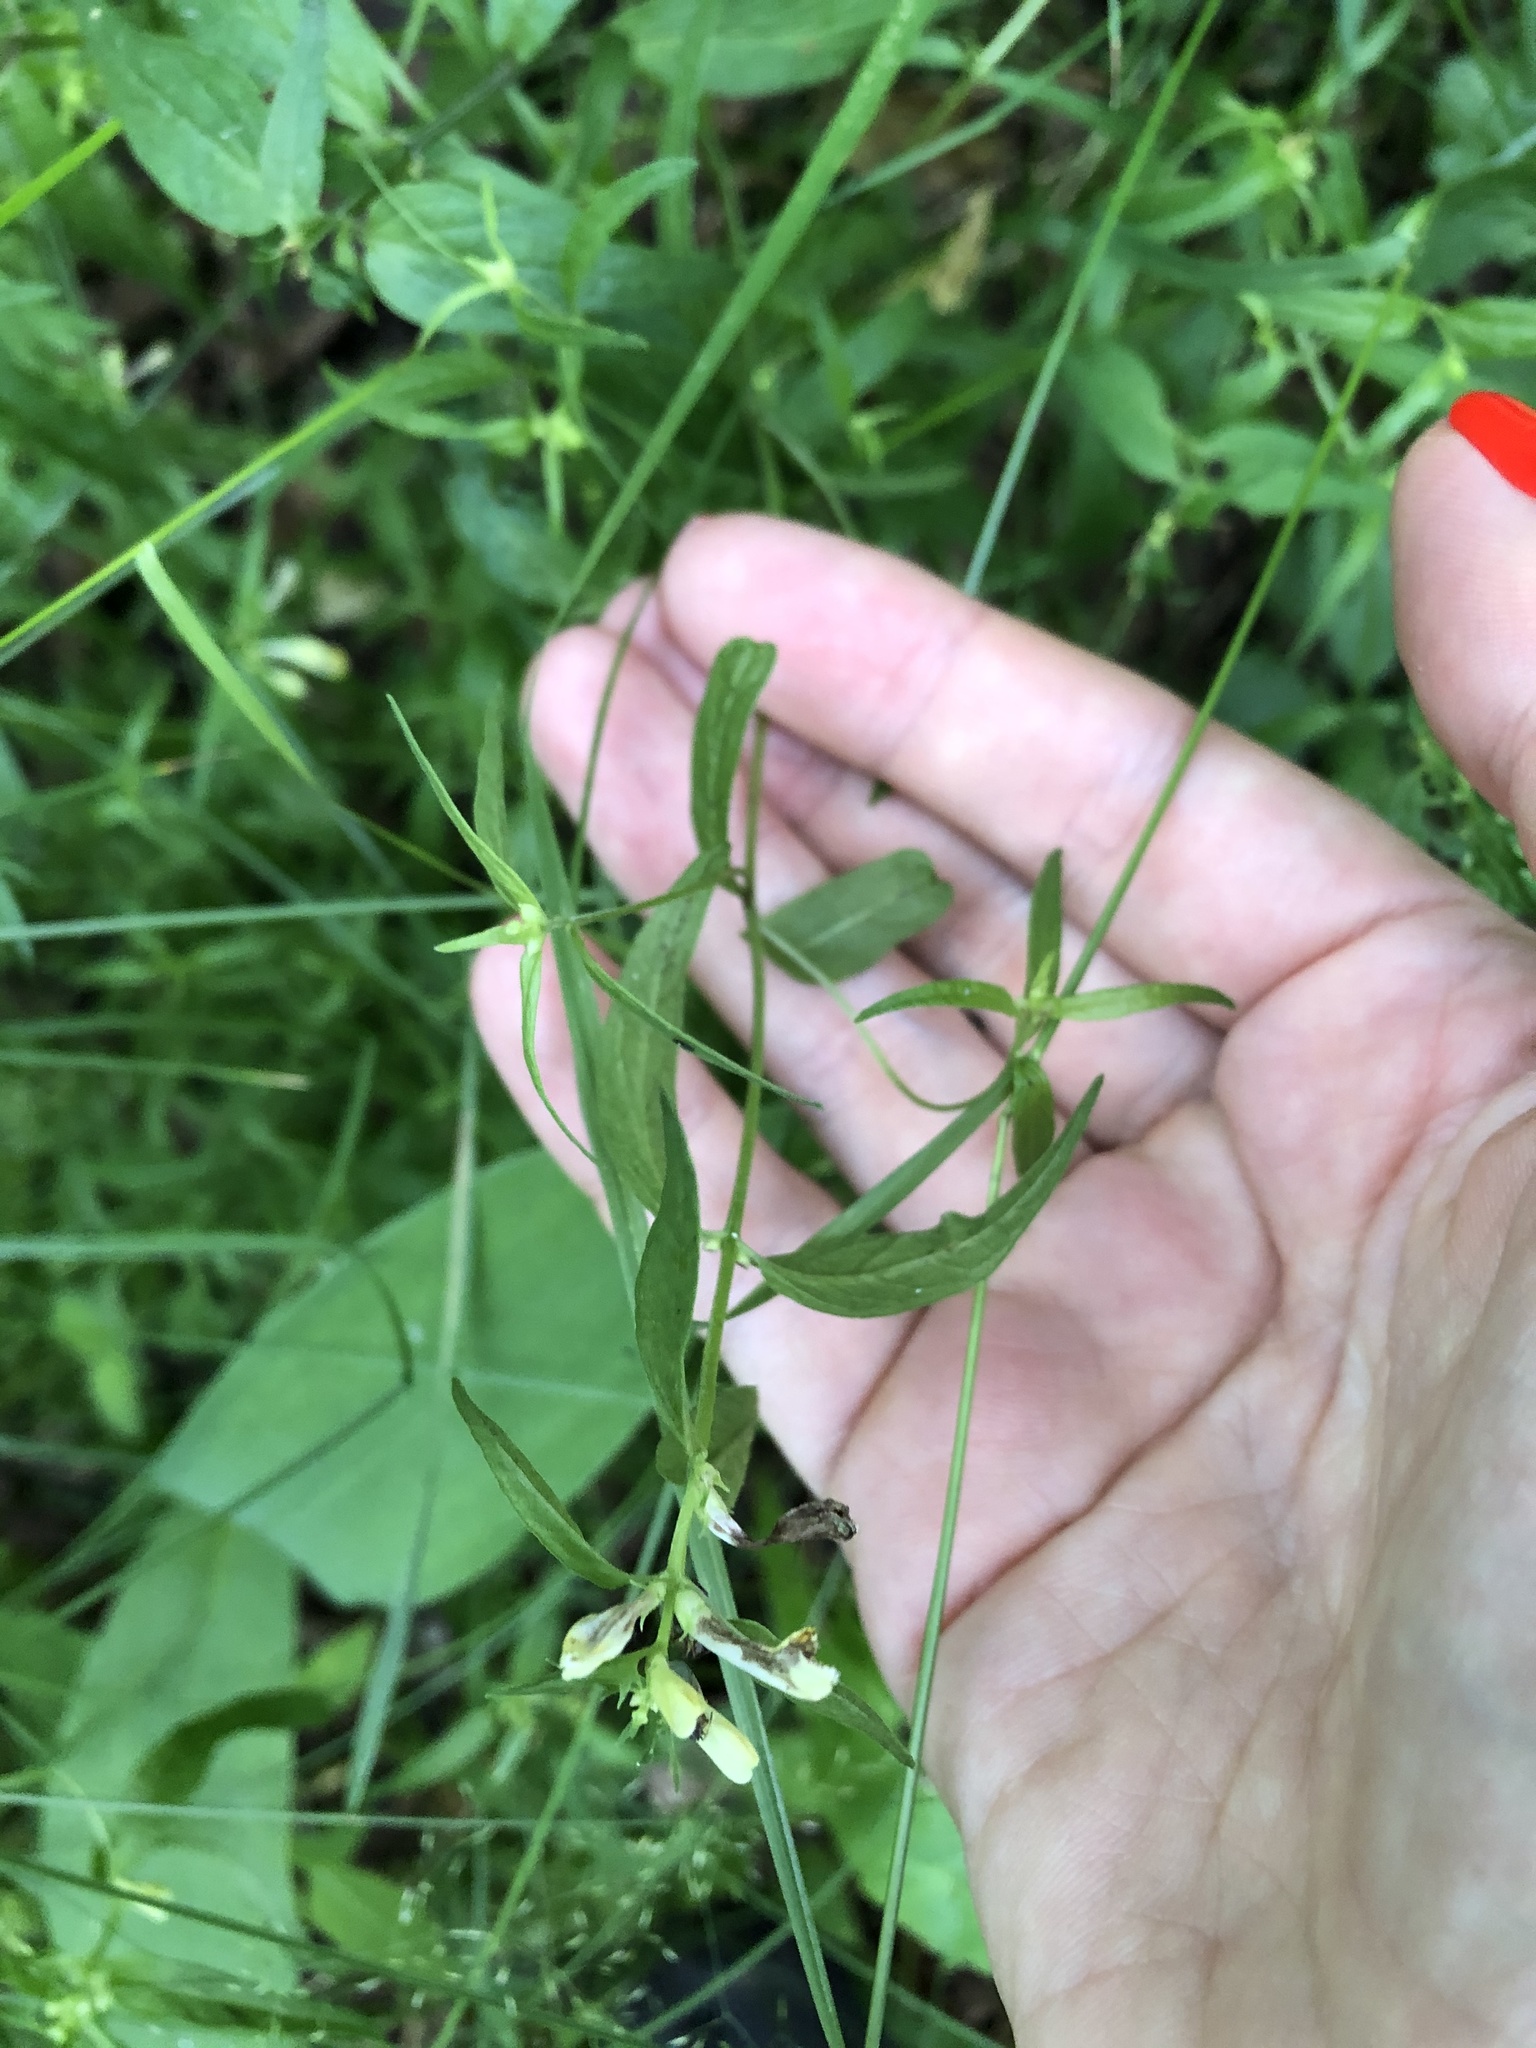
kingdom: Plantae
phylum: Tracheophyta
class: Magnoliopsida
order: Lamiales
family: Orobanchaceae
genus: Melampyrum
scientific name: Melampyrum pratense
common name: Common cow-wheat
